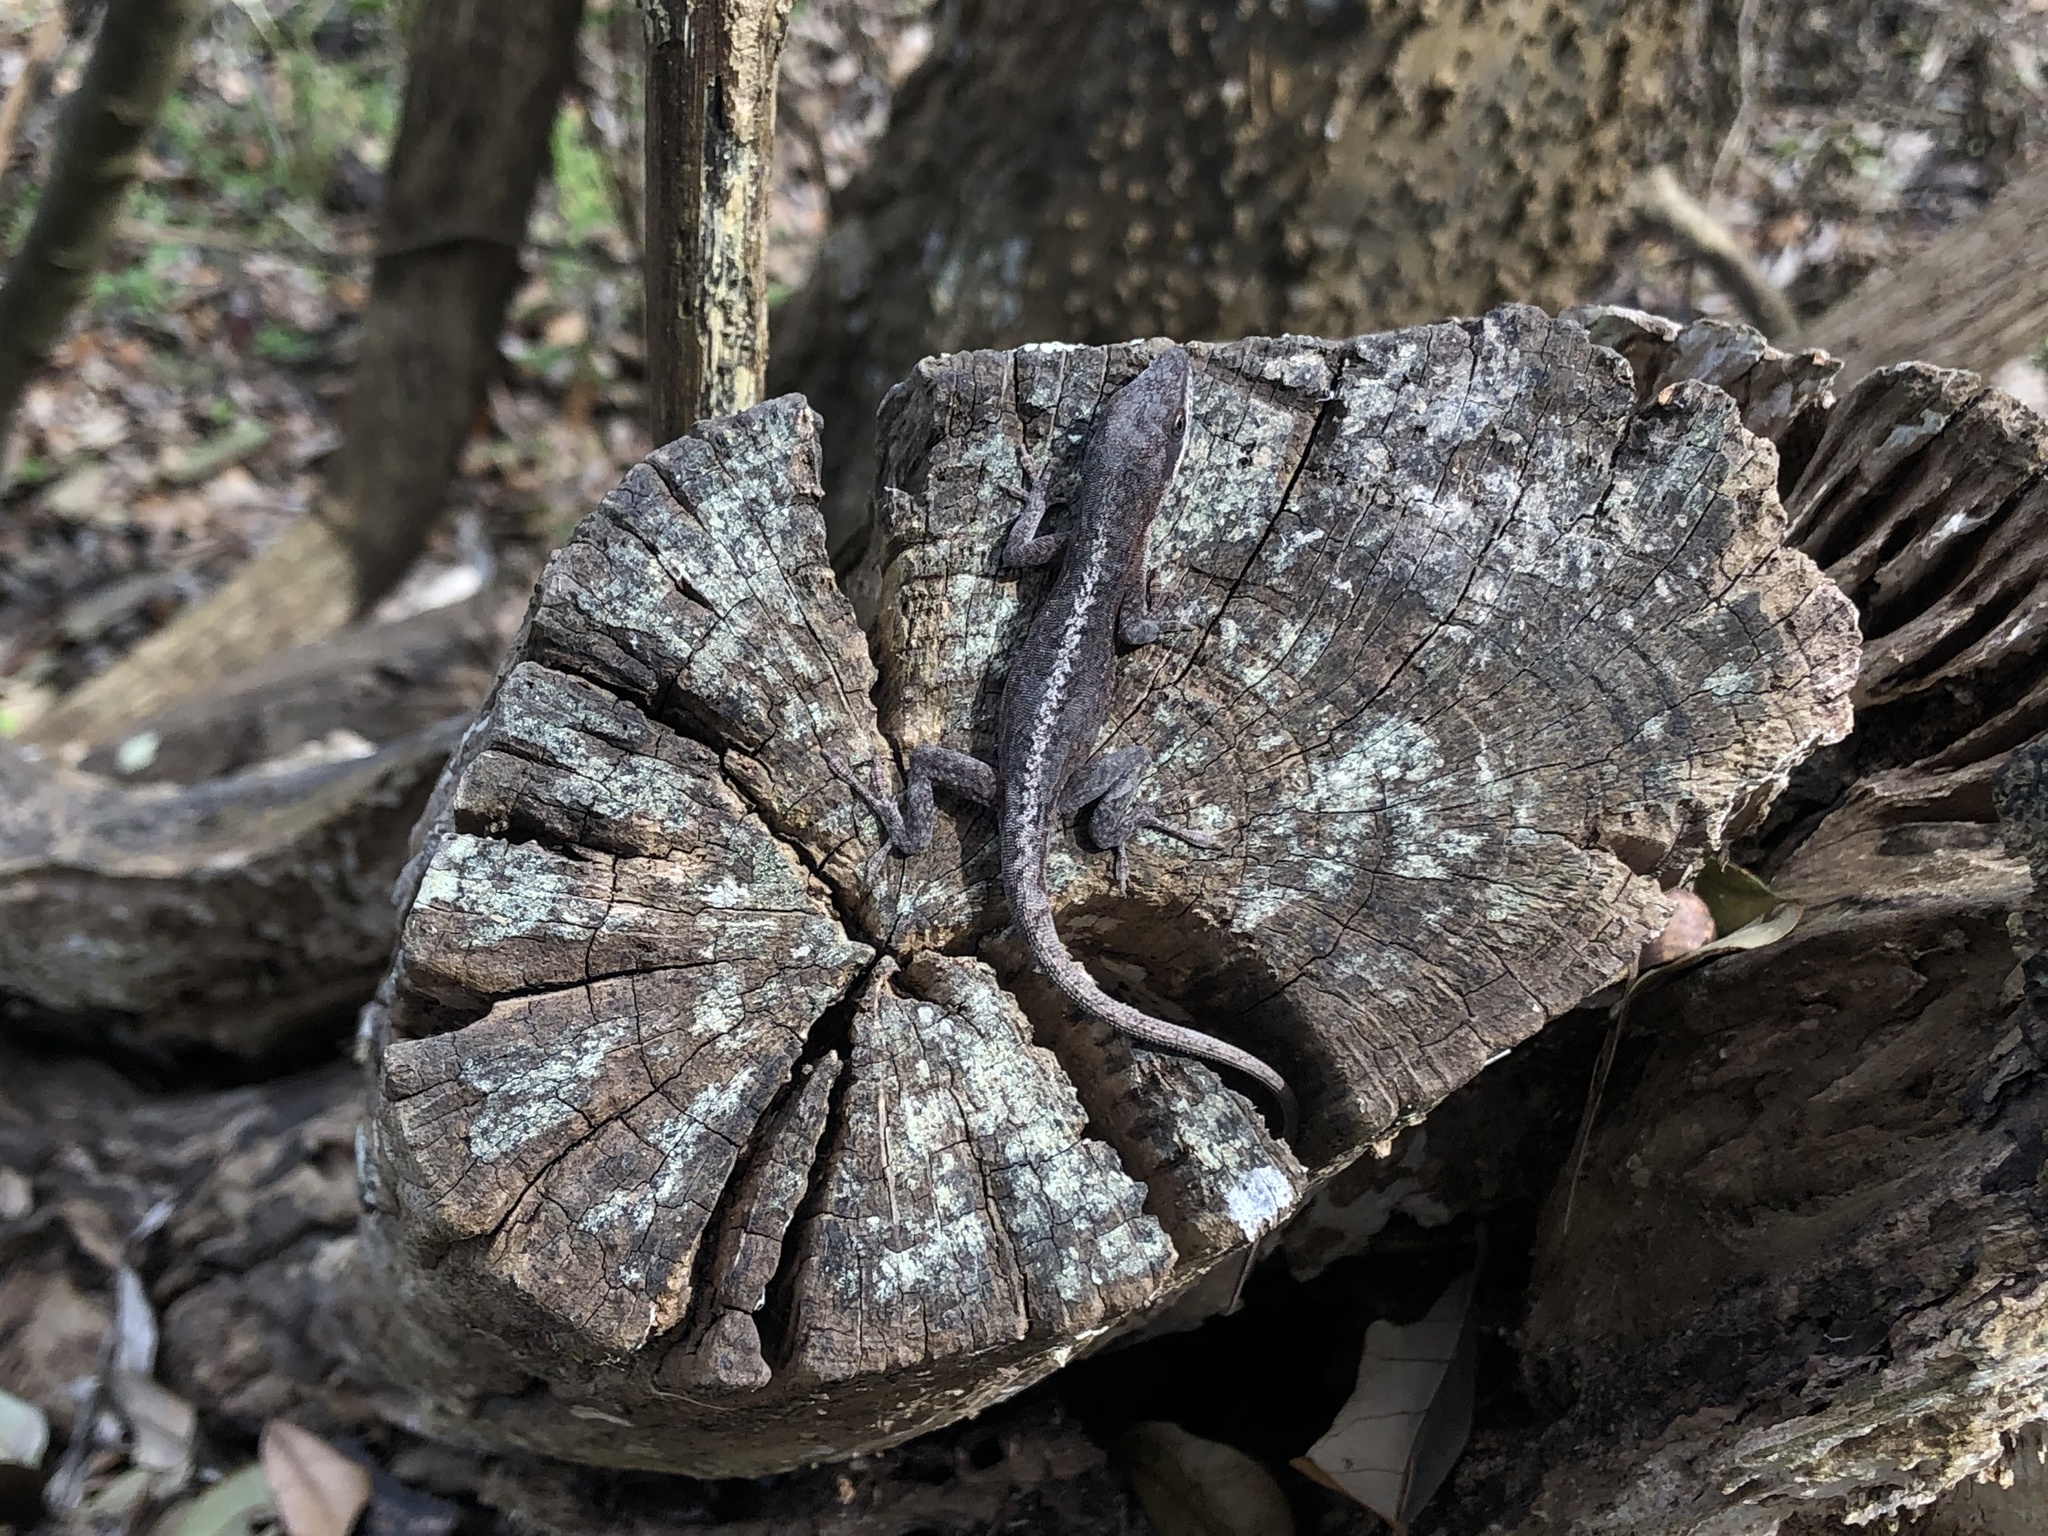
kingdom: Animalia
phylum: Chordata
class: Squamata
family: Dactyloidae
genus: Anolis
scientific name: Anolis carolinensis
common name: Green anole
